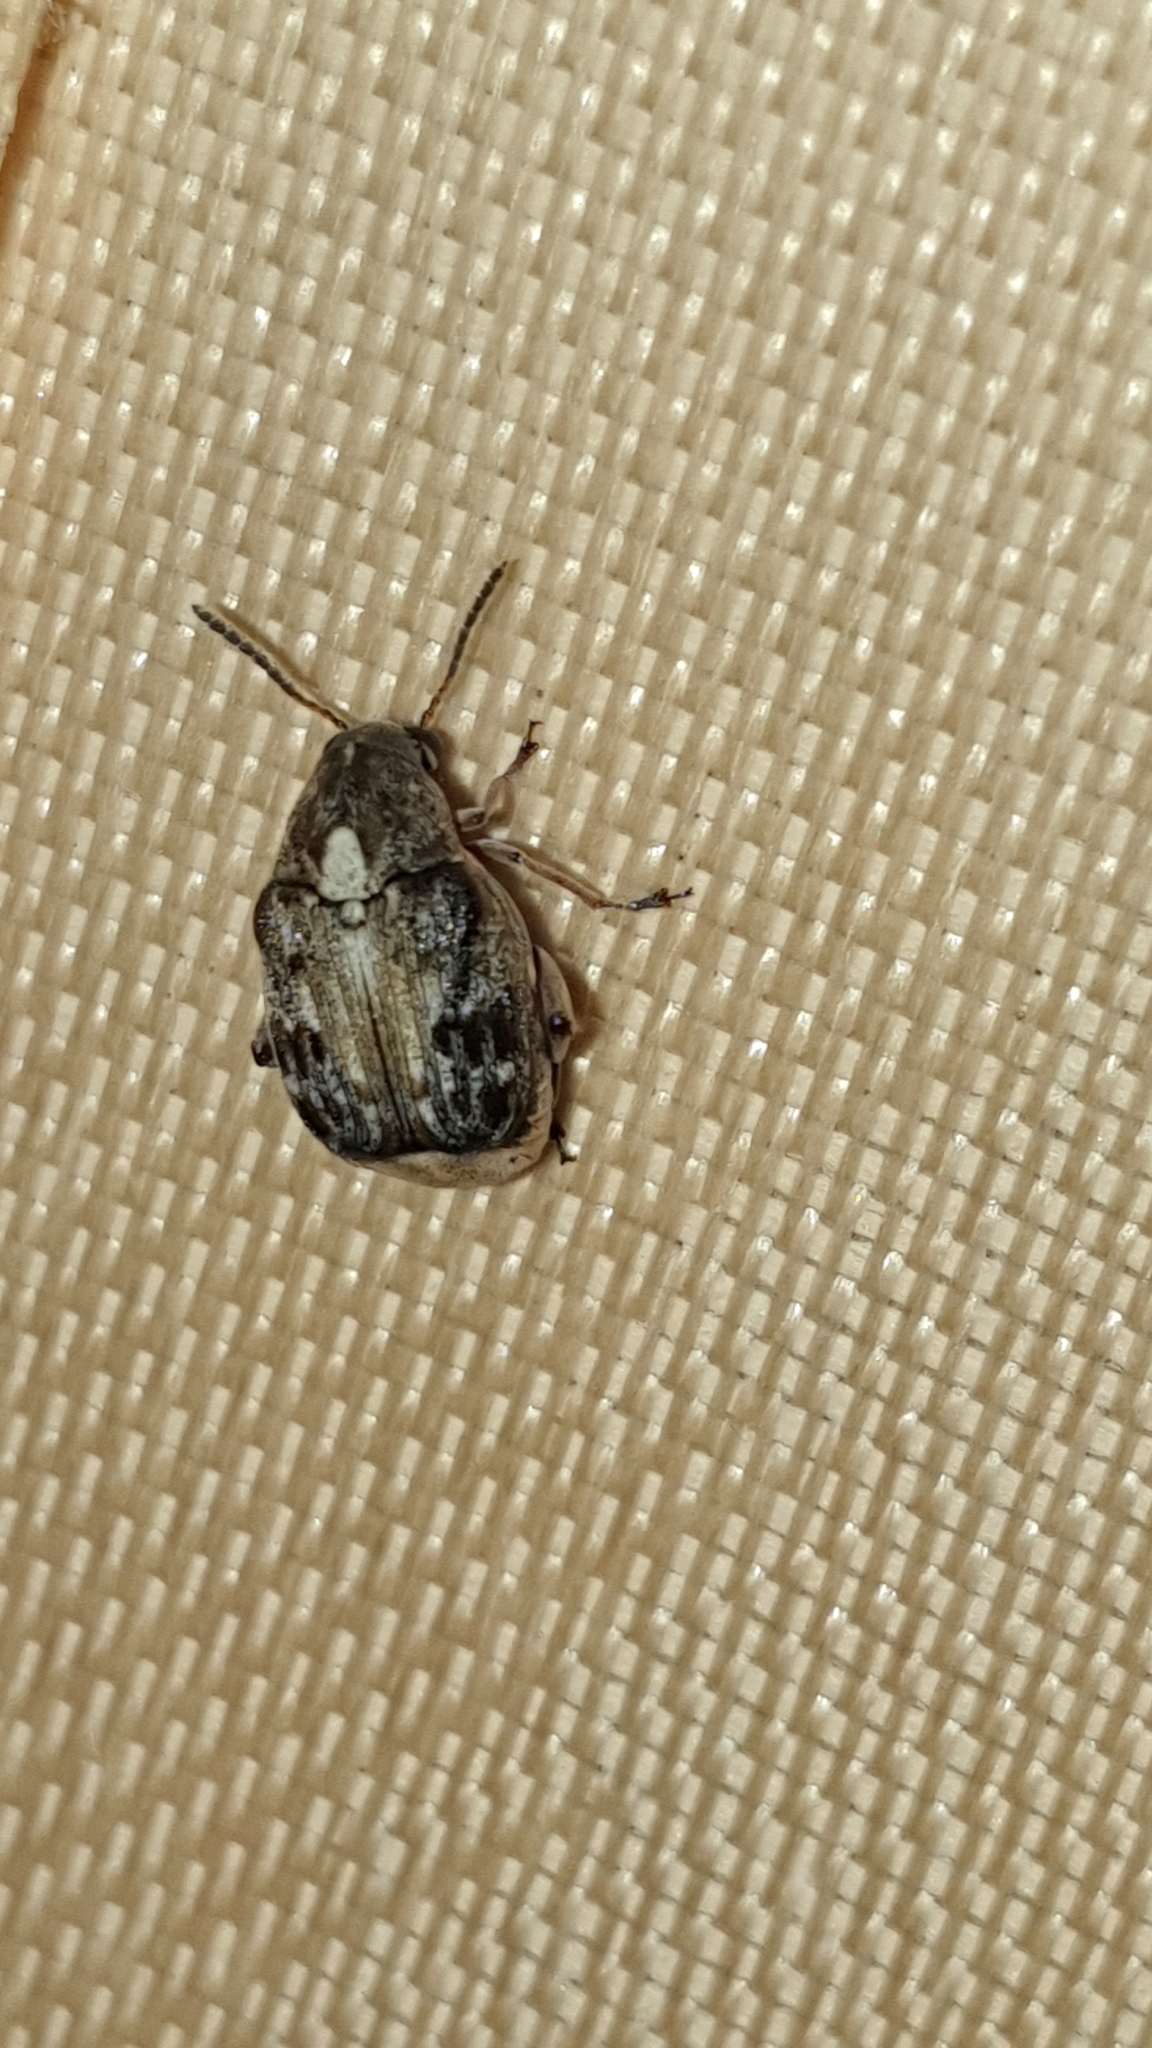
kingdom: Animalia
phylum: Arthropoda
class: Insecta
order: Coleoptera
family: Chrysomelidae
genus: Megabruchidius
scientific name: Megabruchidius dorsalis
